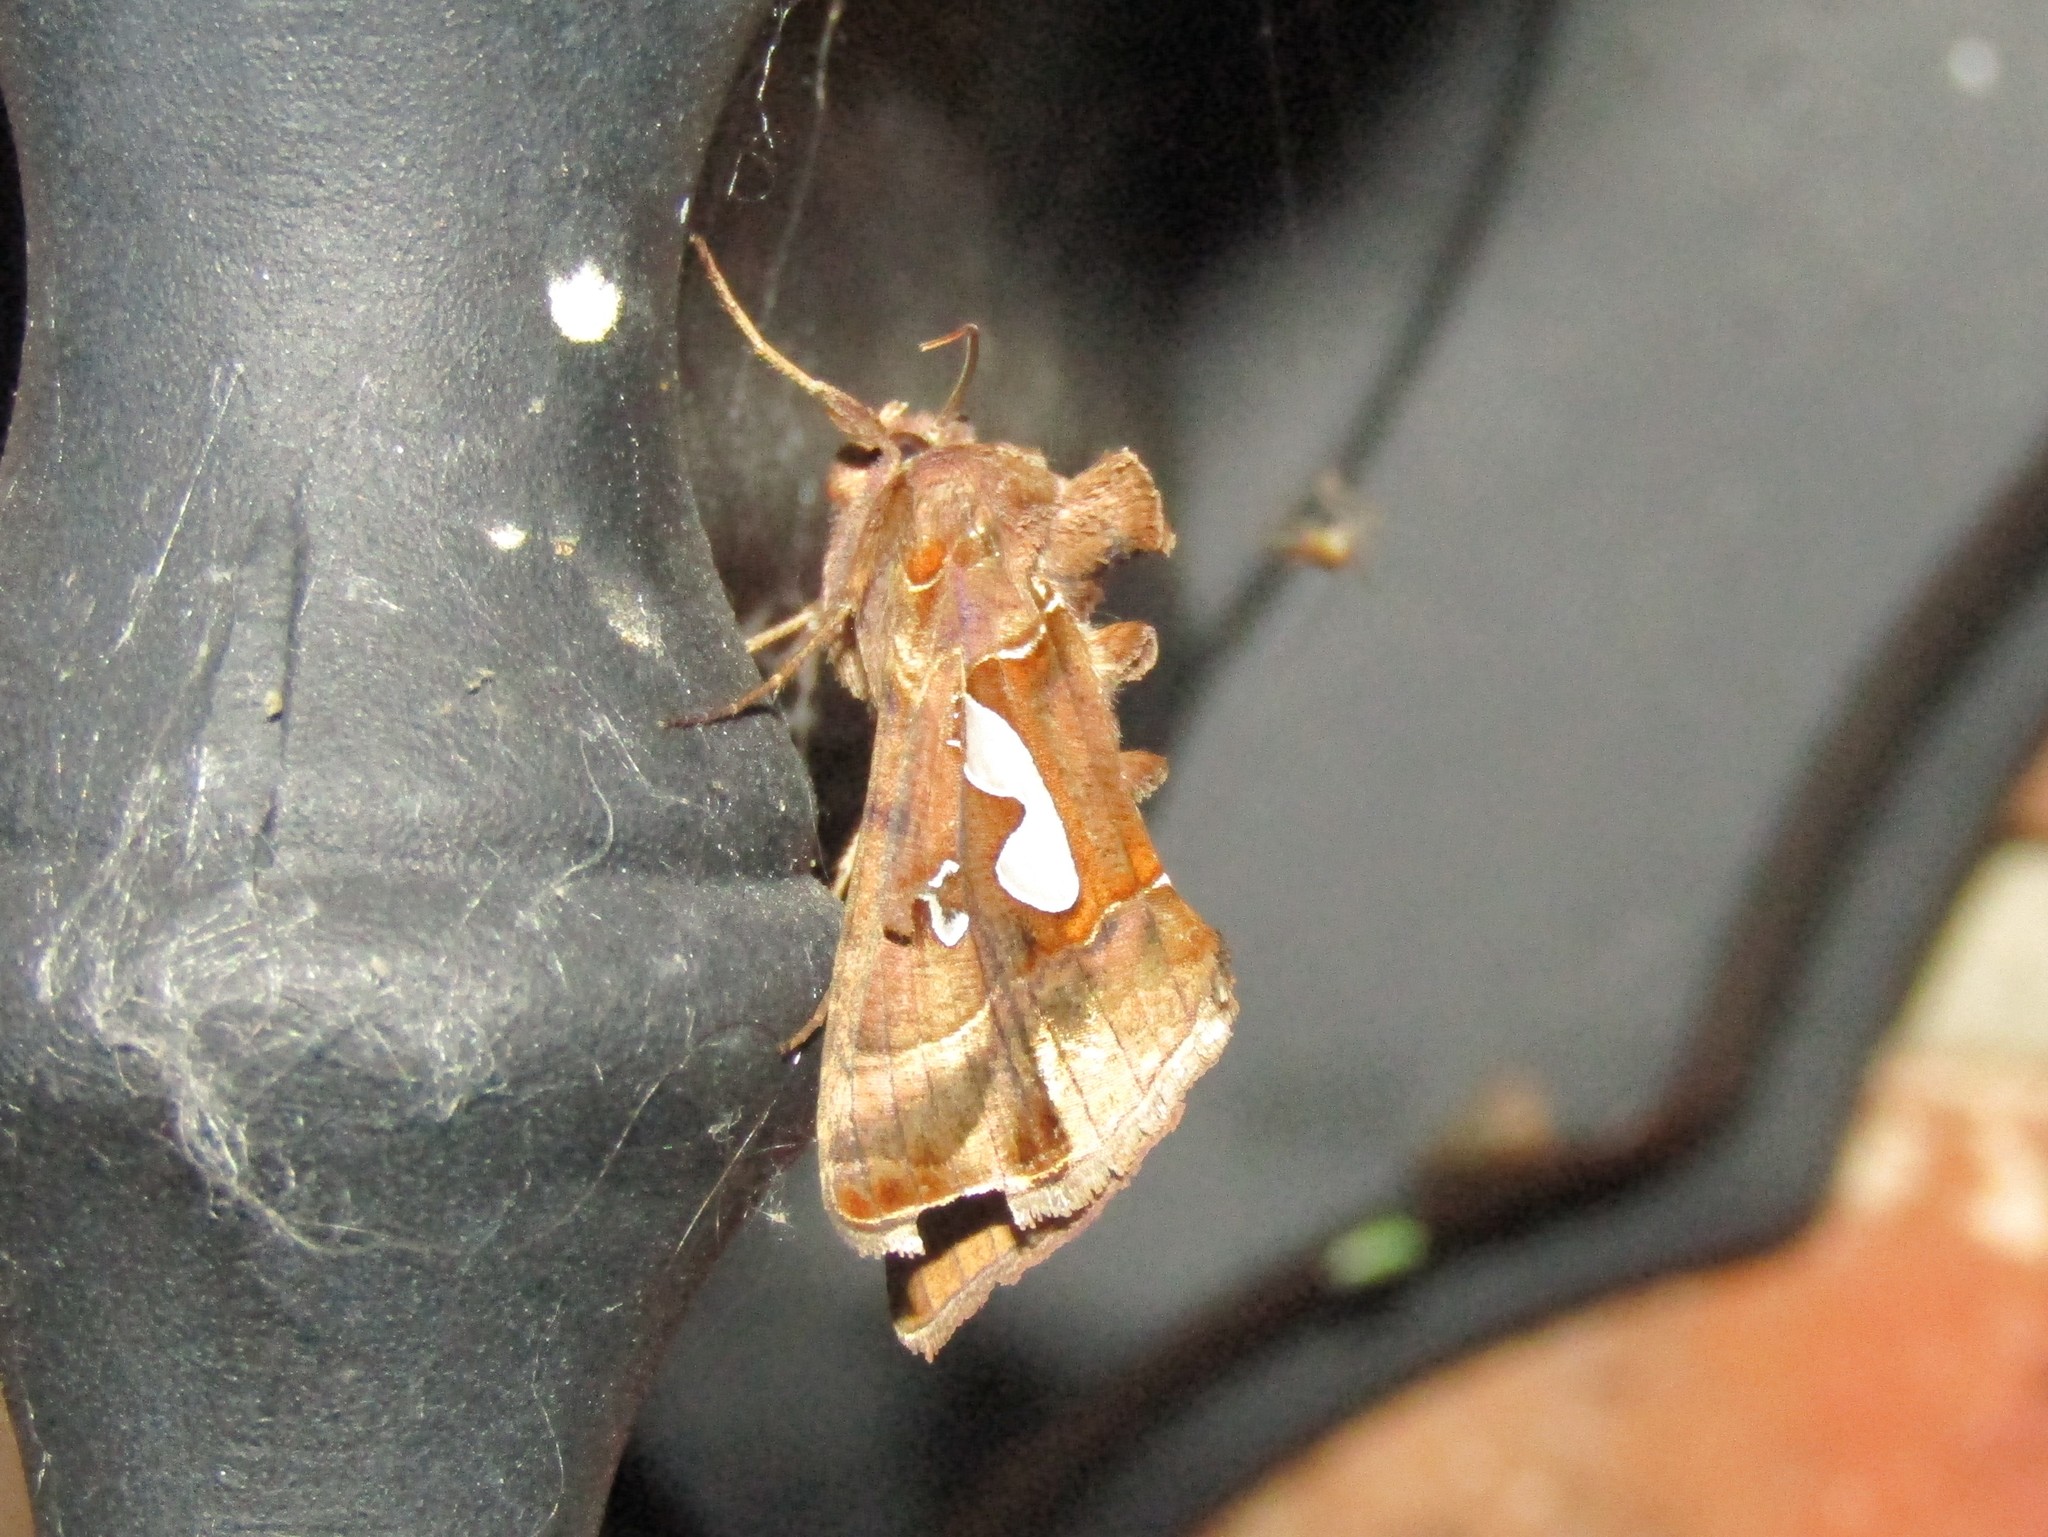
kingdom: Animalia
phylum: Arthropoda
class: Insecta
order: Lepidoptera
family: Noctuidae
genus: Megalographa
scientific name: Megalographa biloba
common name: Cutworm
